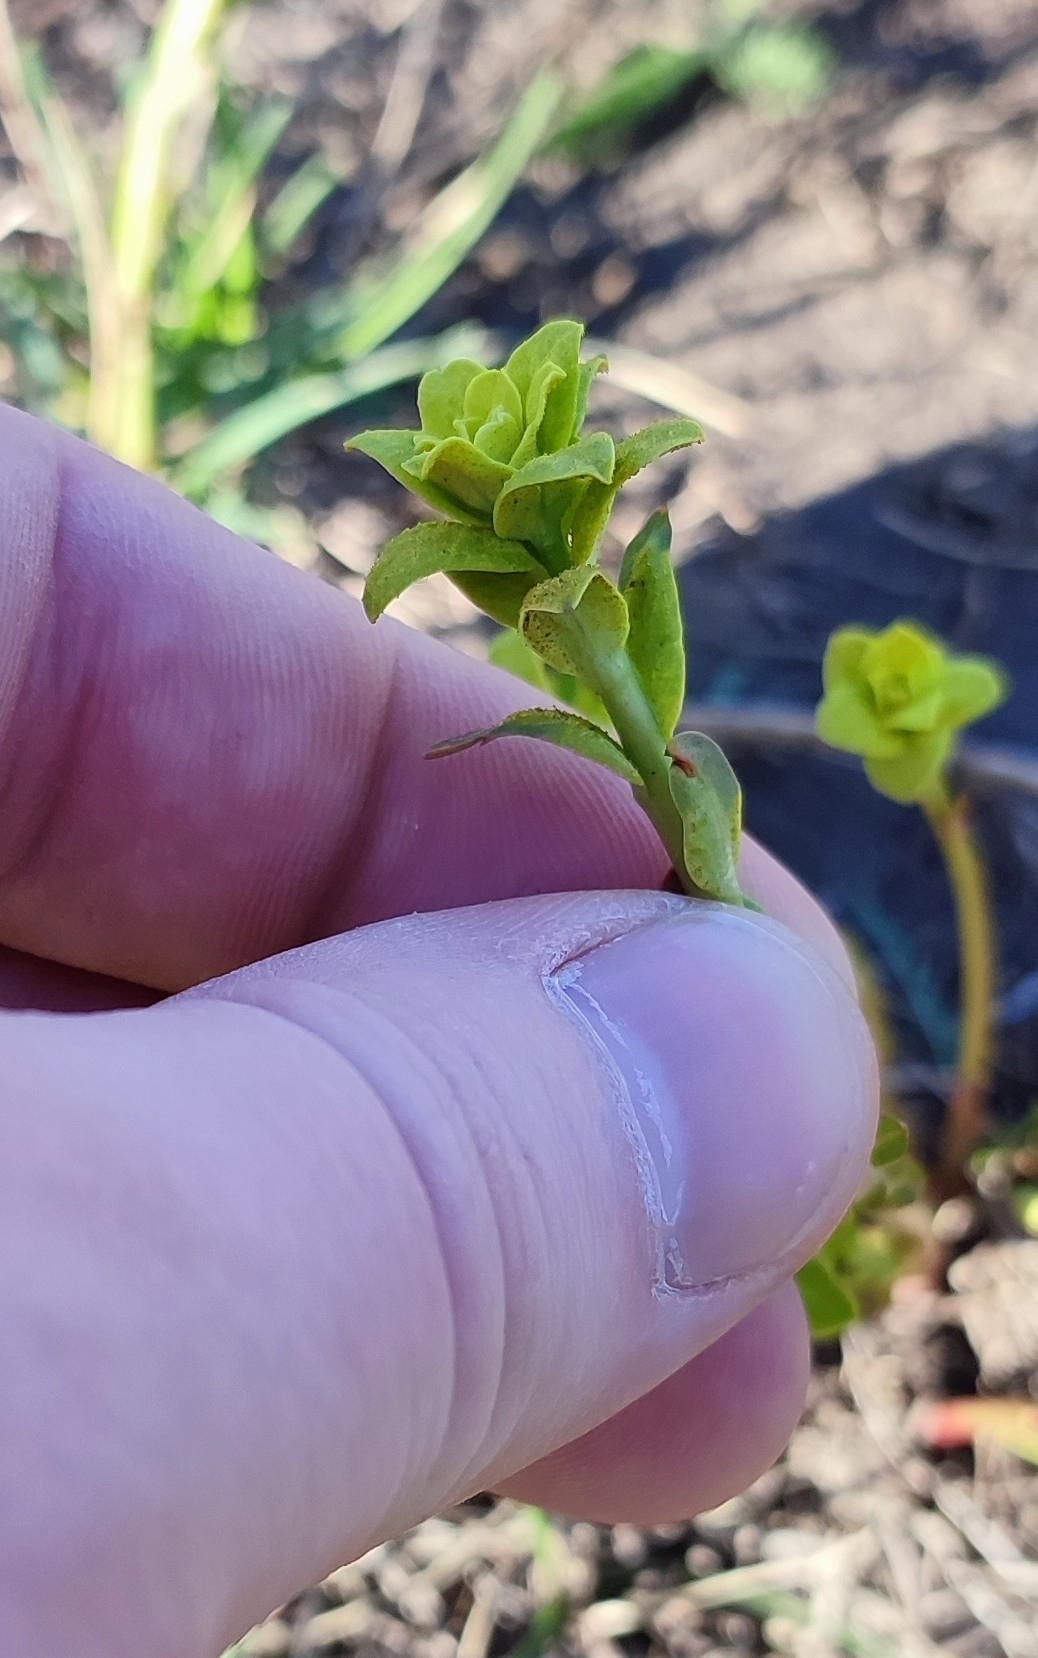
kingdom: Plantae
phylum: Tracheophyta
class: Magnoliopsida
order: Malpighiales
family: Euphorbiaceae
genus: Euphorbia
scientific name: Euphorbia virgata
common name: Leafy spurge
